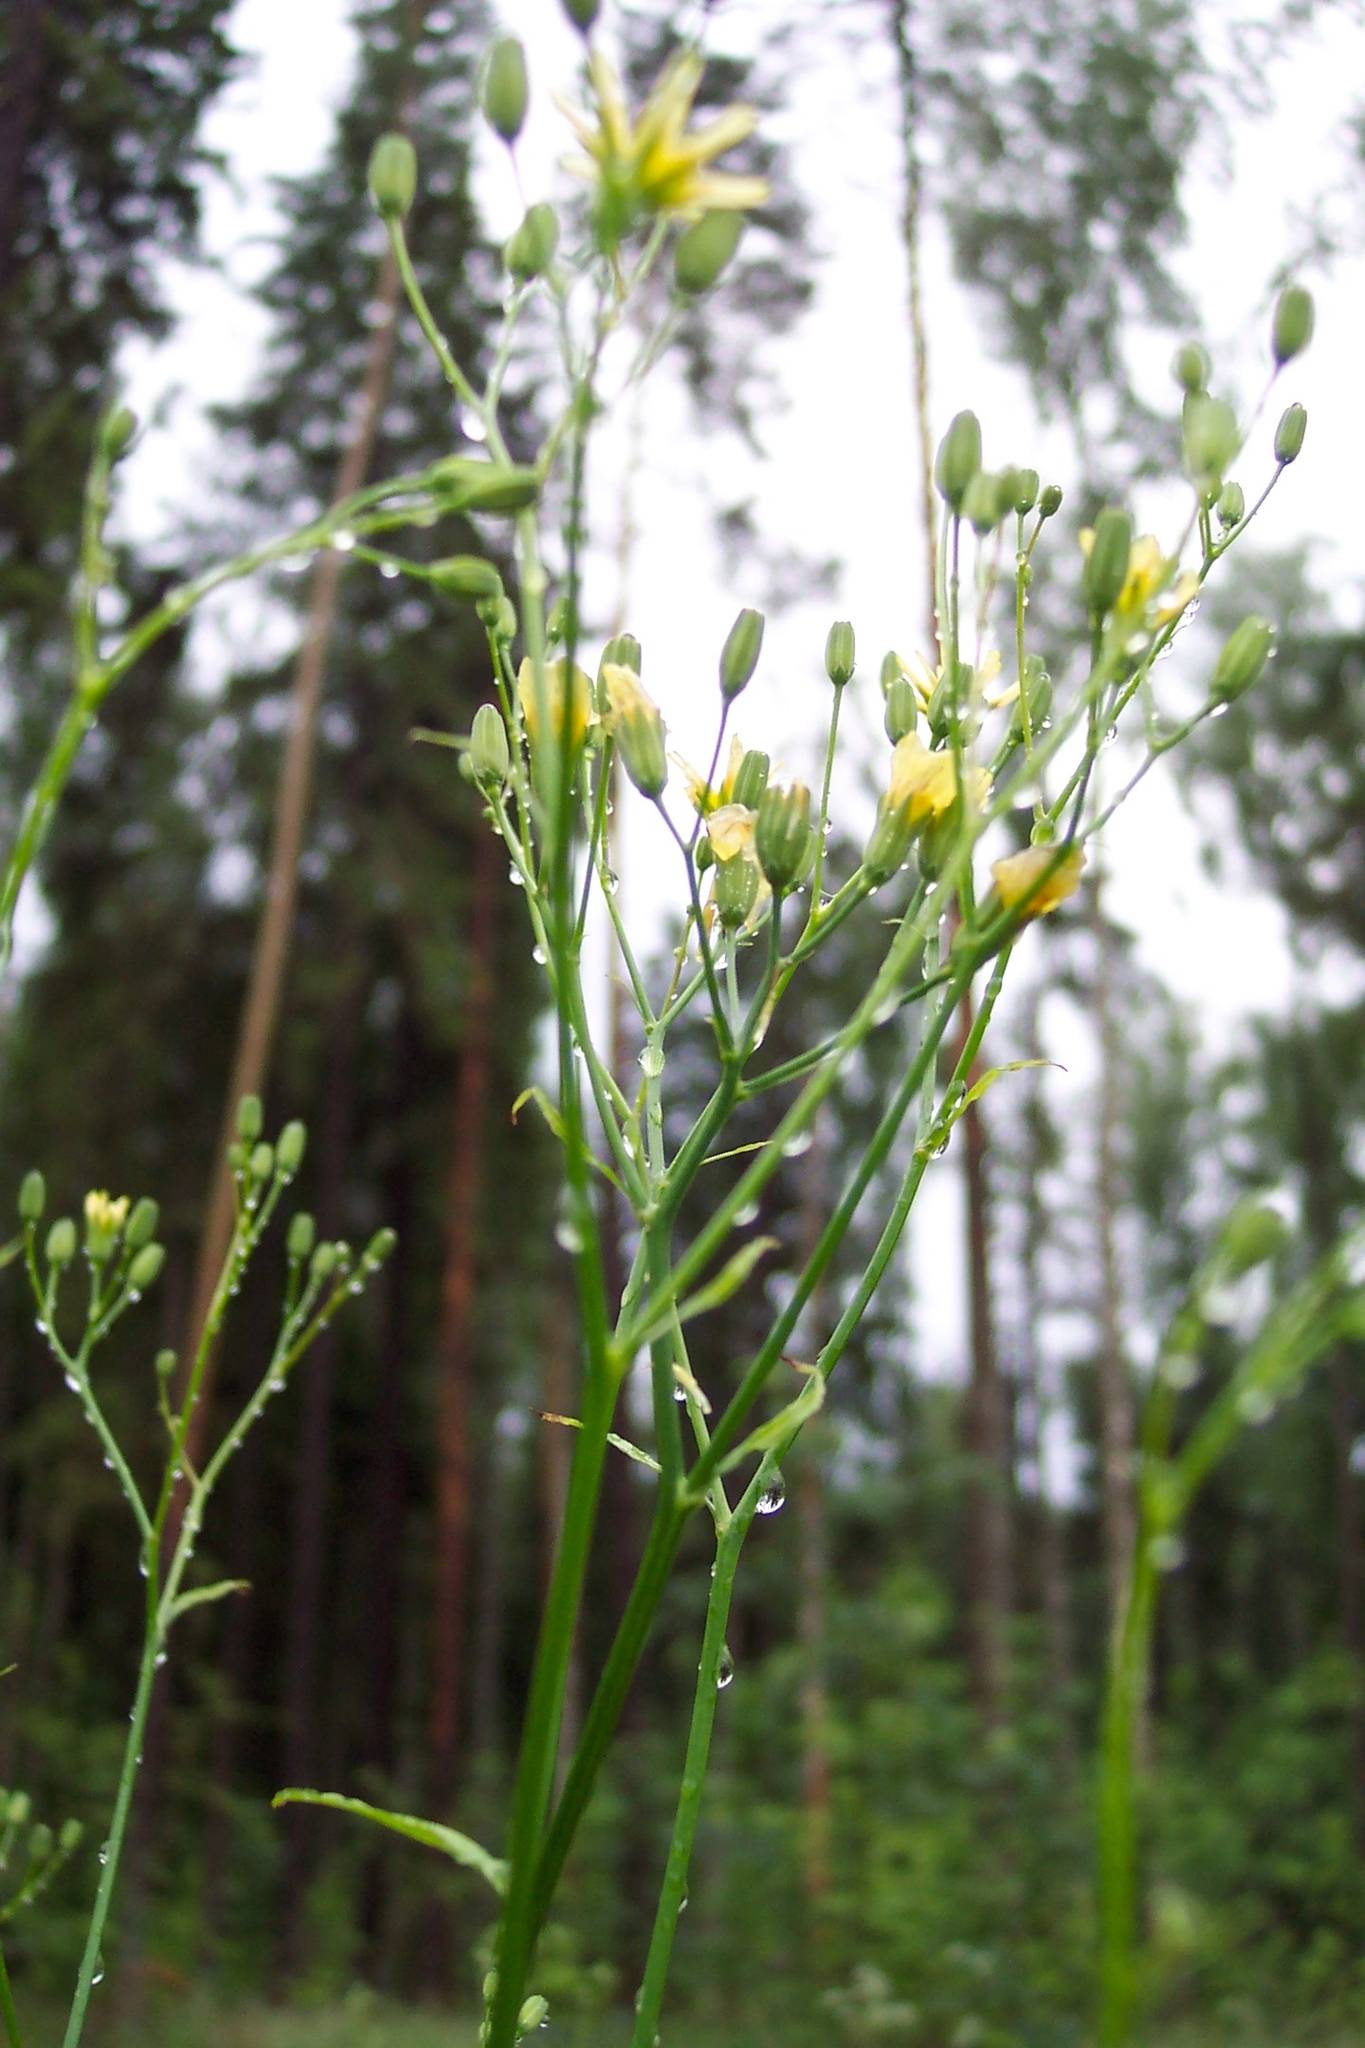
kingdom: Plantae
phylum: Tracheophyta
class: Magnoliopsida
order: Asterales
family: Asteraceae
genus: Lapsana
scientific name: Lapsana communis
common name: Nipplewort
